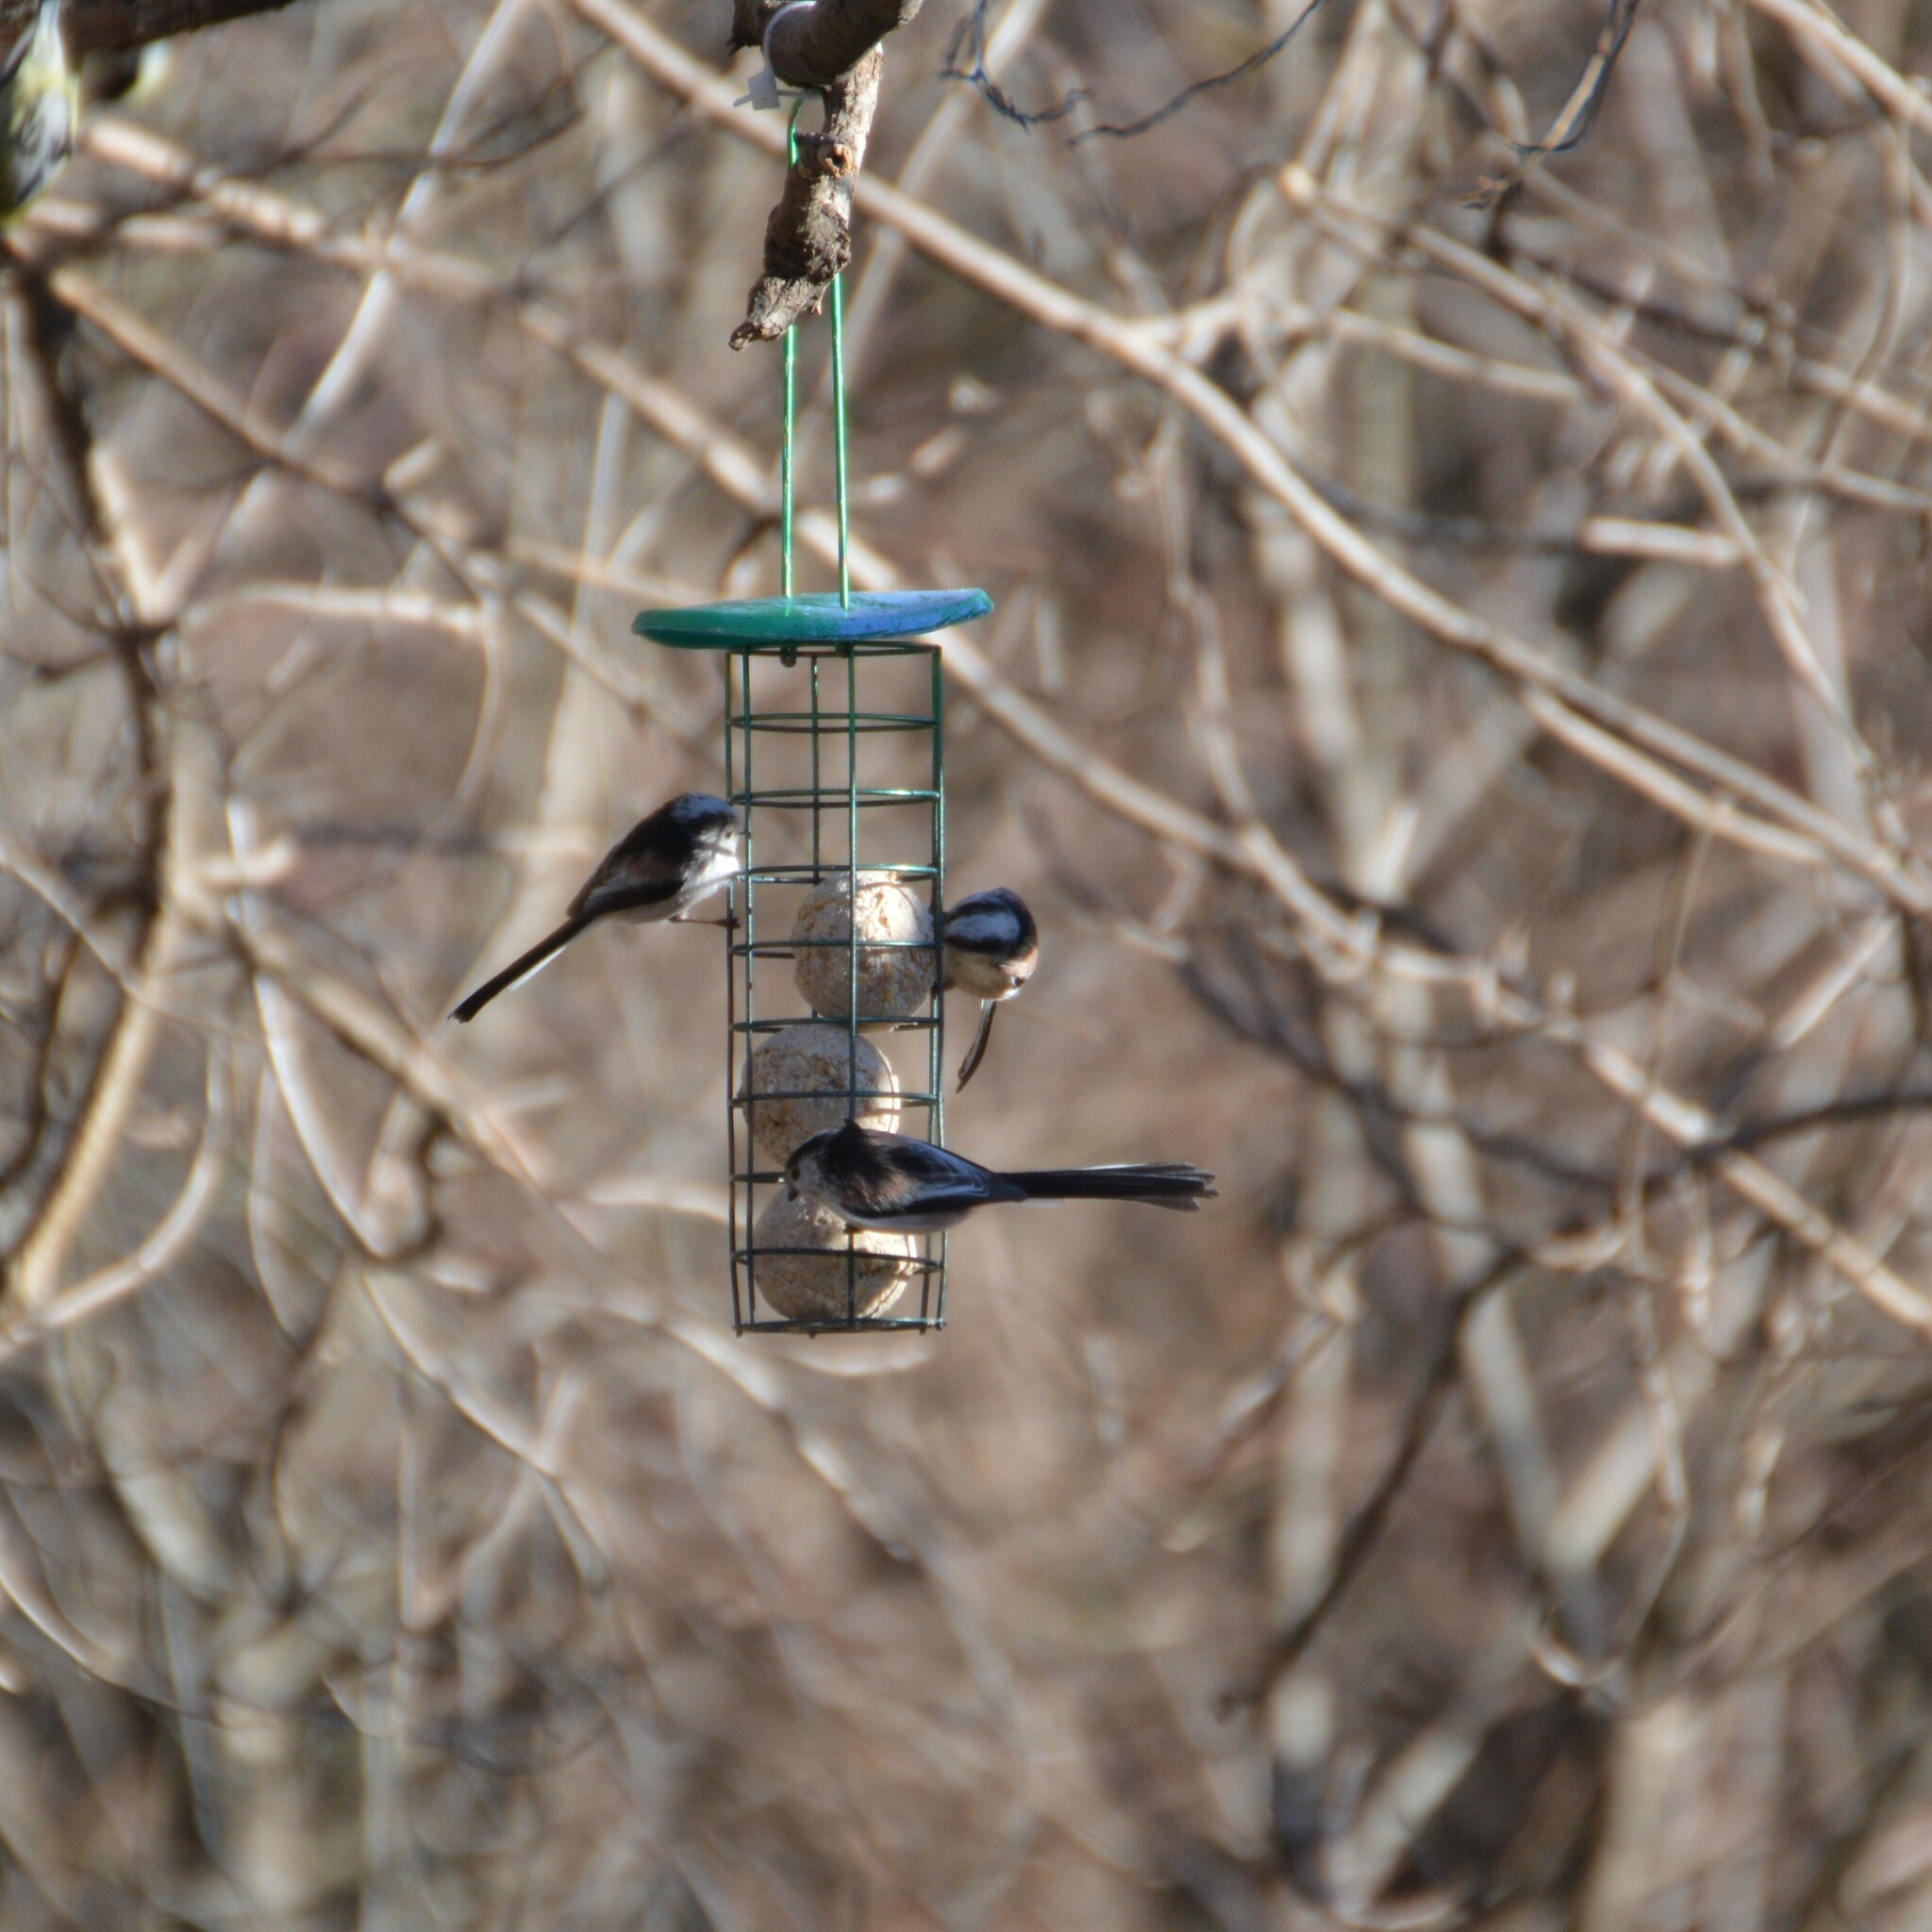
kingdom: Animalia
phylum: Chordata
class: Aves
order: Passeriformes
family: Aegithalidae
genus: Aegithalos
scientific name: Aegithalos caudatus
